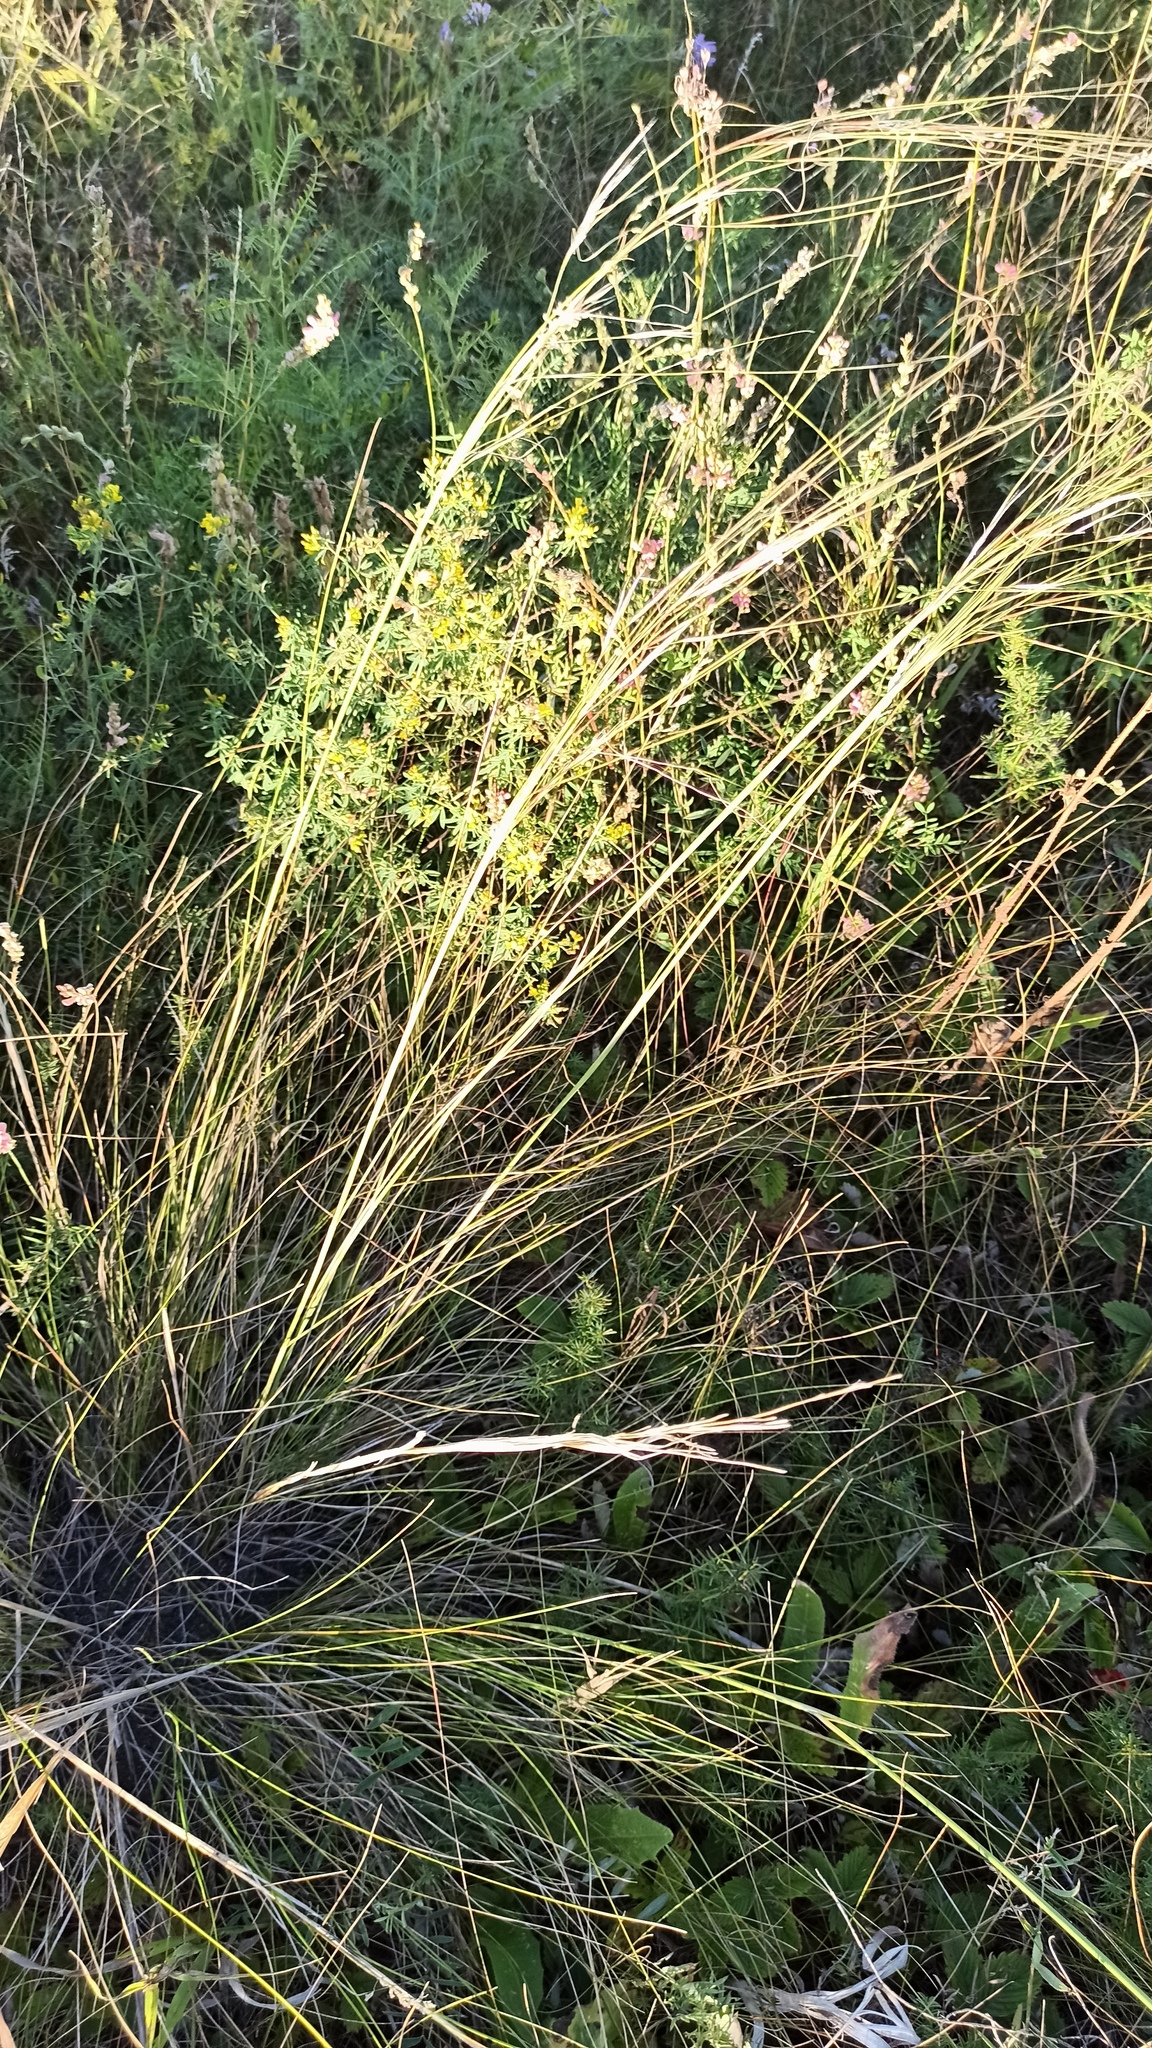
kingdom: Plantae
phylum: Tracheophyta
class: Liliopsida
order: Poales
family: Poaceae
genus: Stipa
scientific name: Stipa capillata
